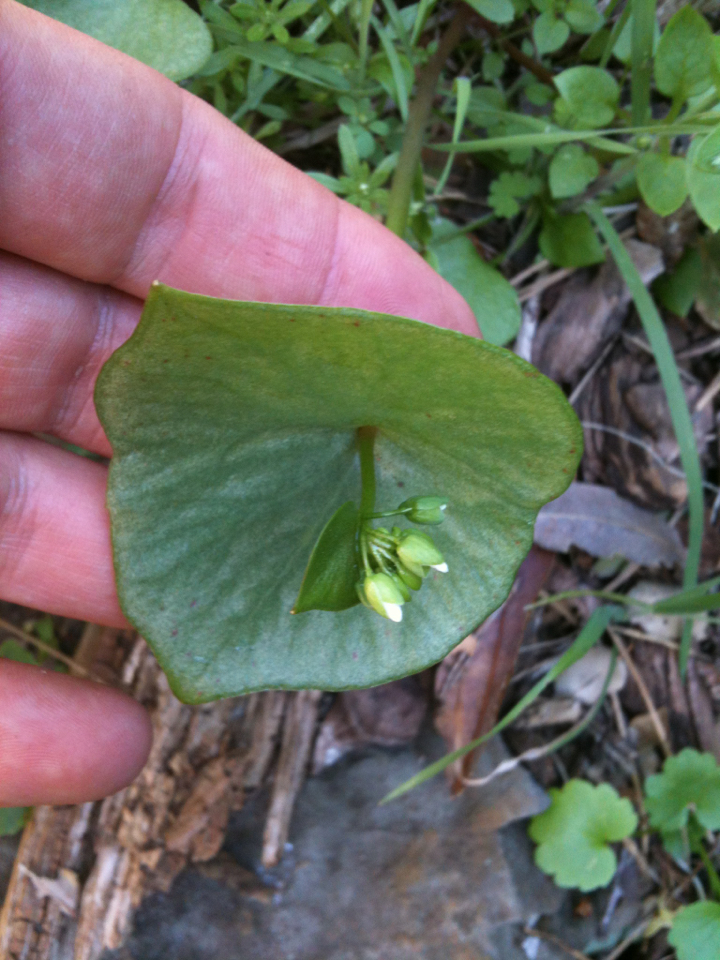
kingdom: Plantae
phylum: Tracheophyta
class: Magnoliopsida
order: Caryophyllales
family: Montiaceae
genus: Claytonia
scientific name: Claytonia perfoliata
